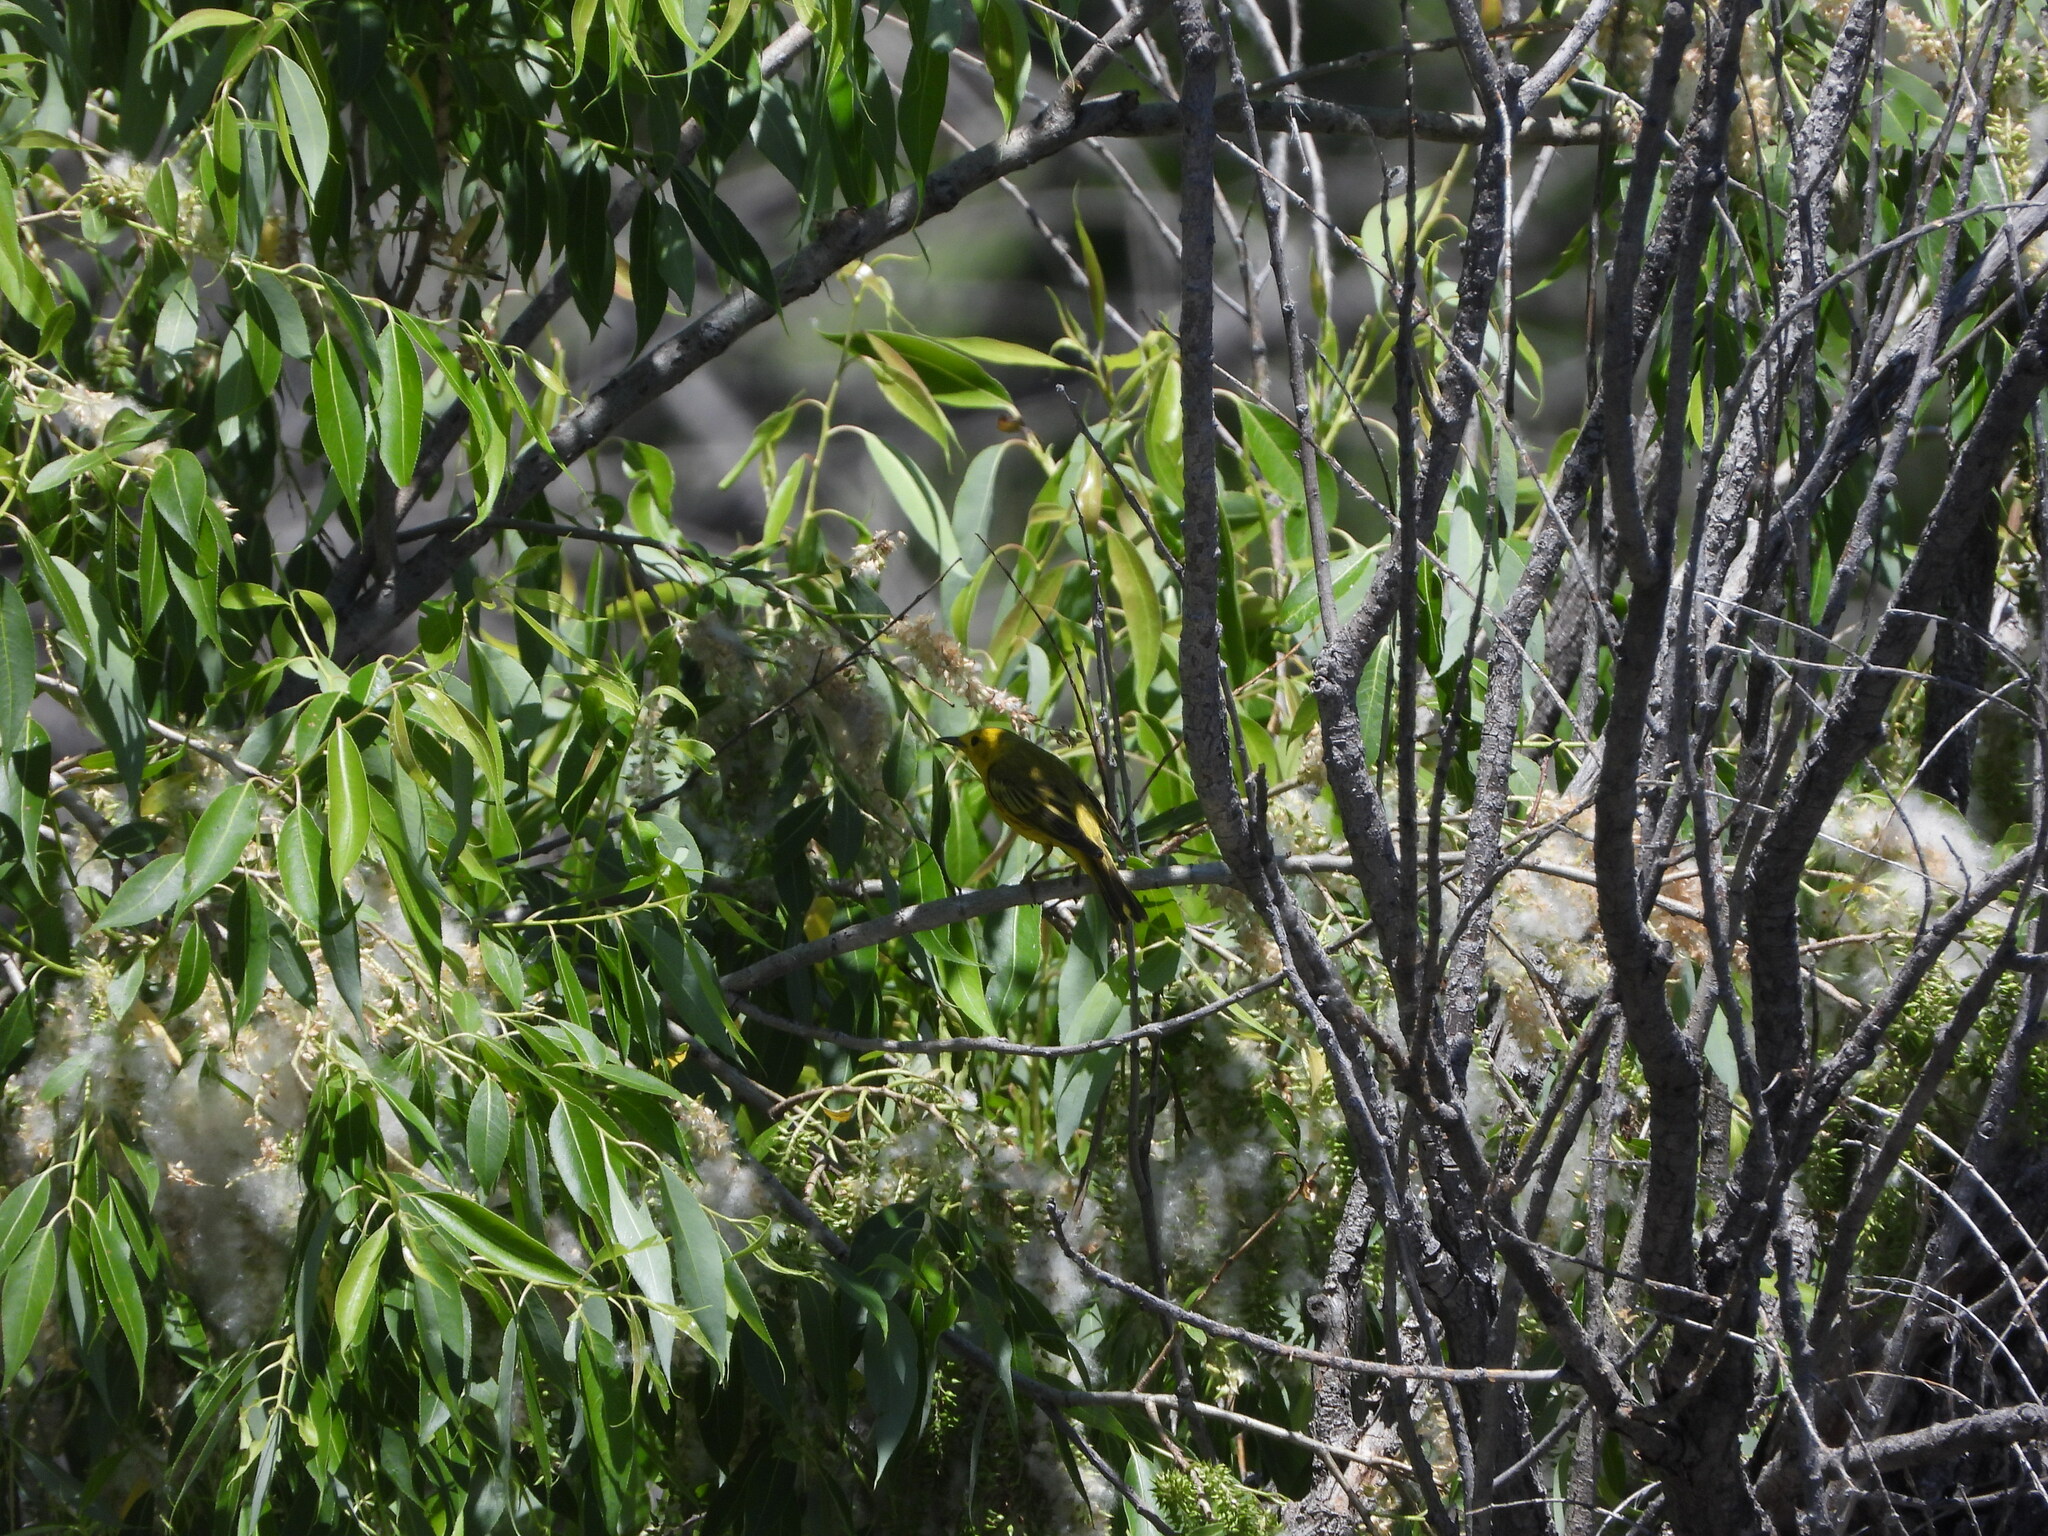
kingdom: Animalia
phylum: Chordata
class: Aves
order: Passeriformes
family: Parulidae
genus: Setophaga
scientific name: Setophaga petechia
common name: Yellow warbler
